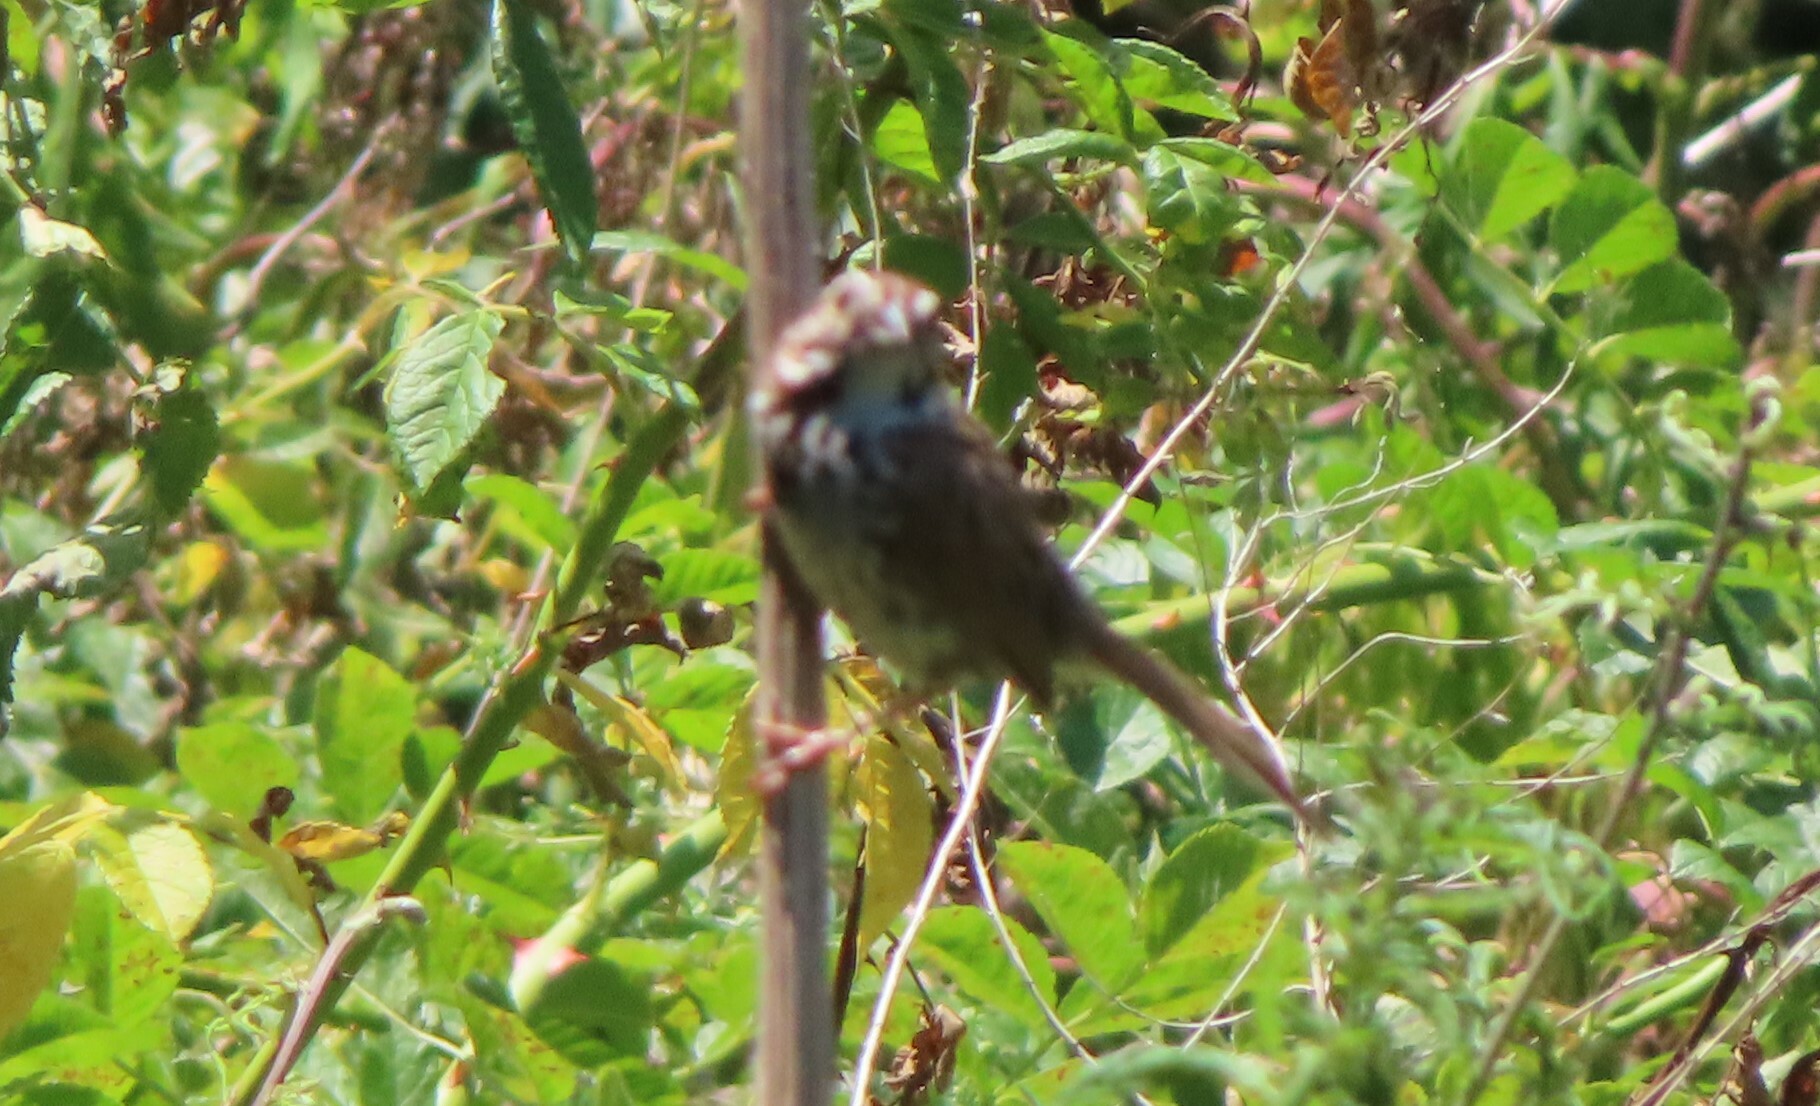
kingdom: Animalia
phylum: Chordata
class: Aves
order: Passeriformes
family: Passerellidae
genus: Melospiza
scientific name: Melospiza melodia
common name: Song sparrow
